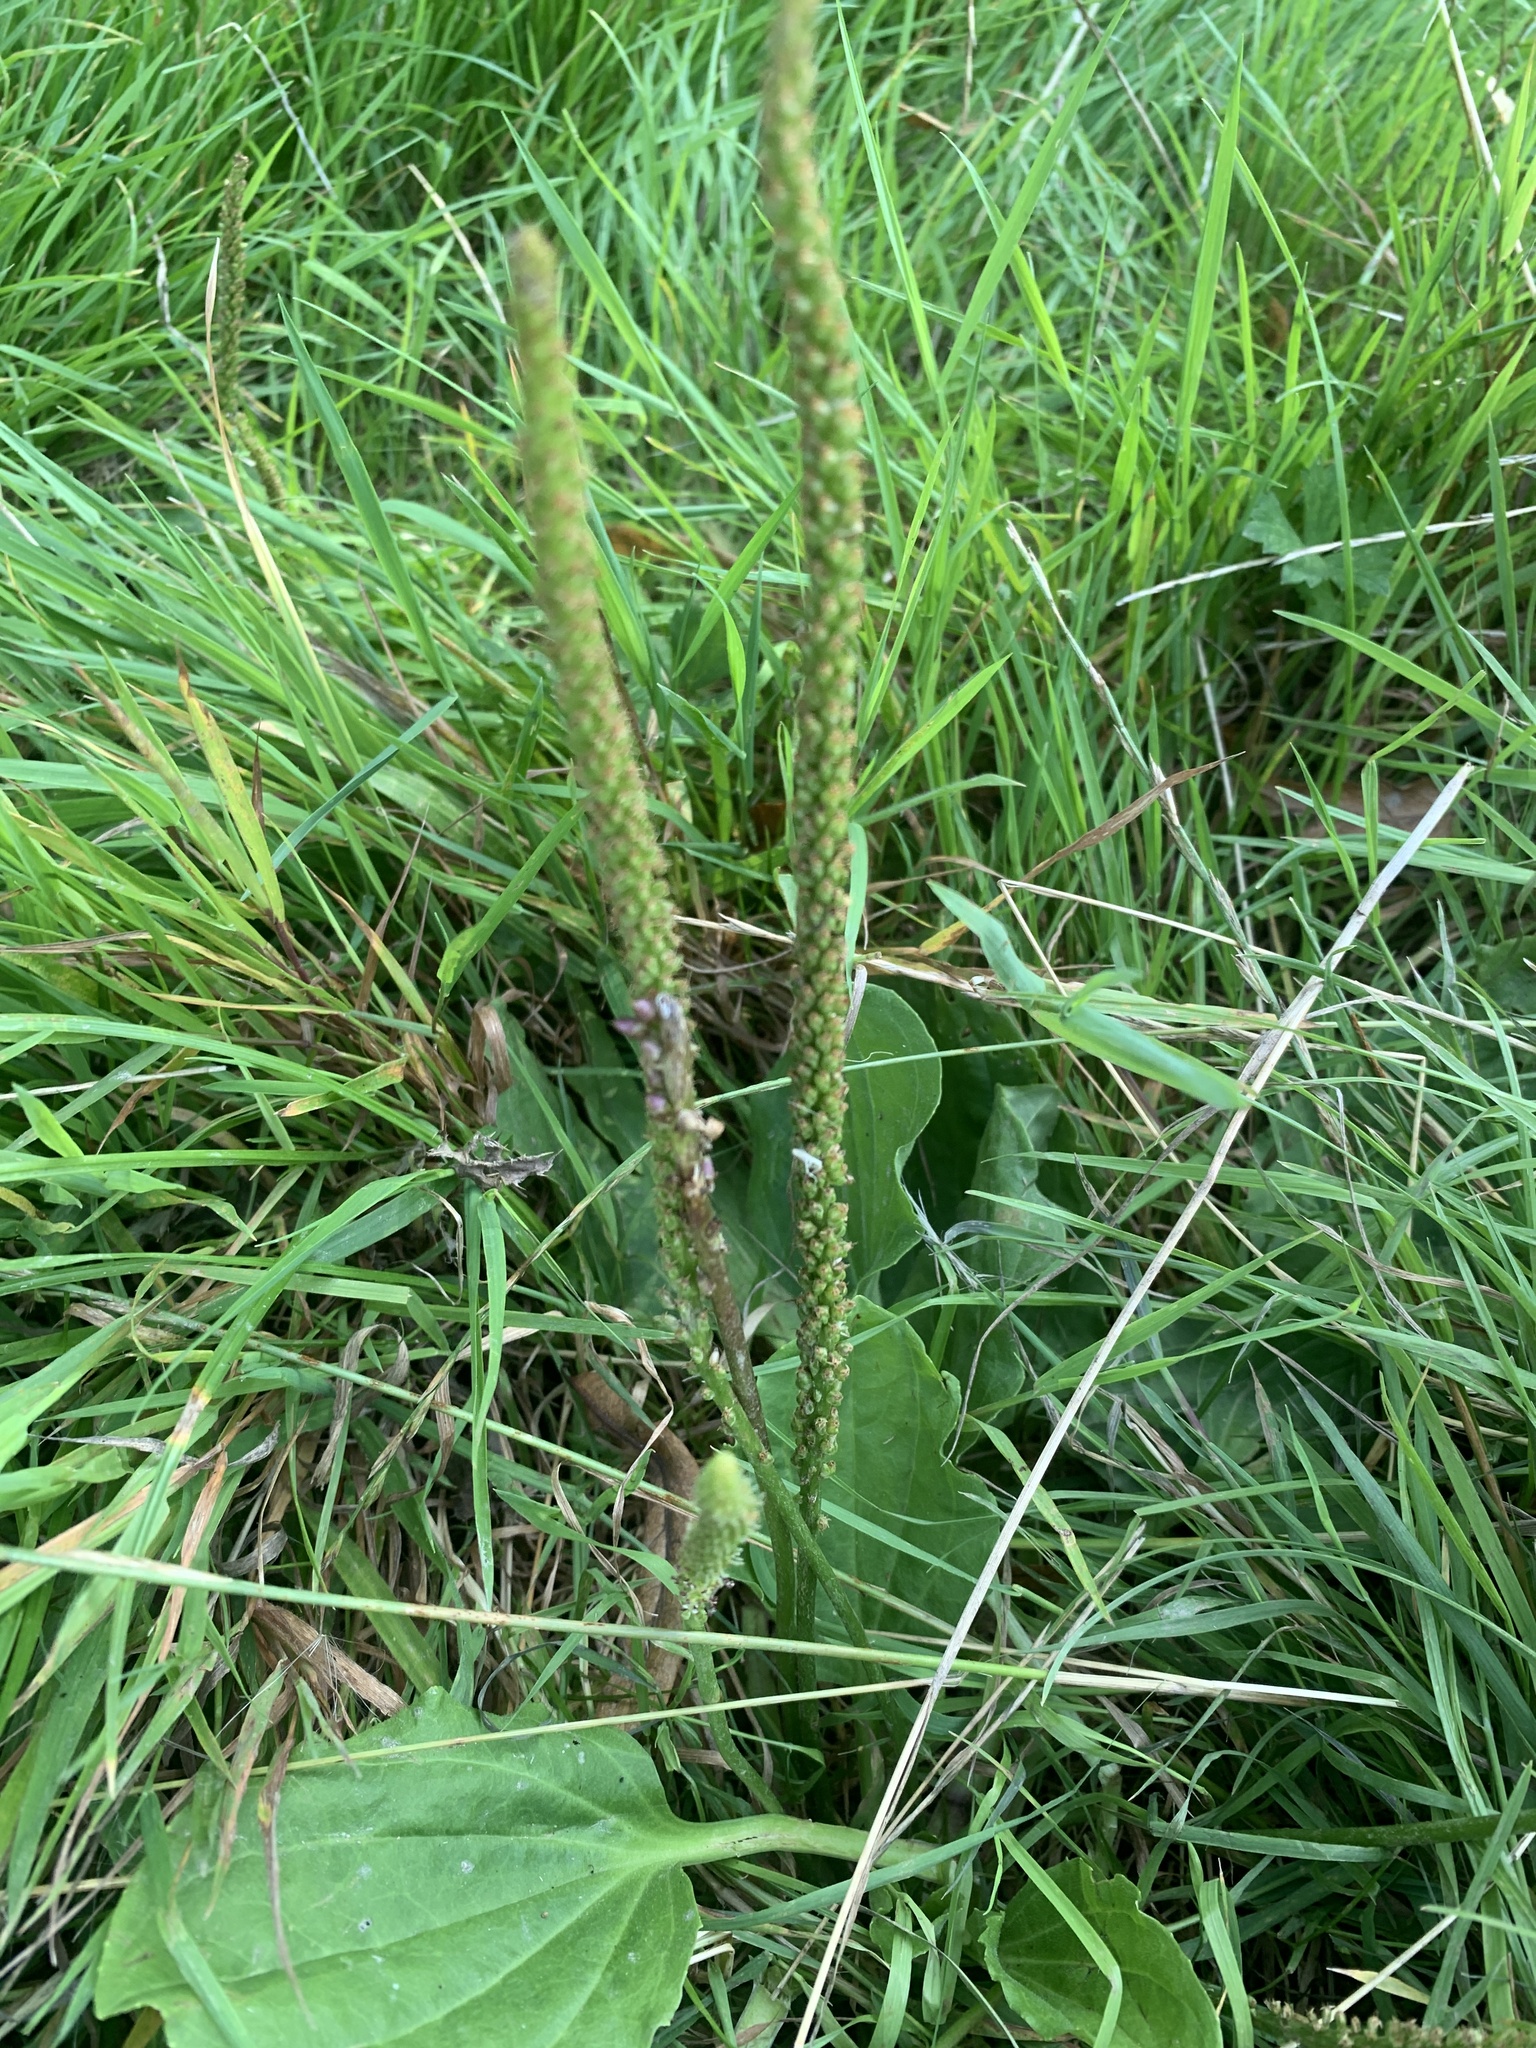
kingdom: Plantae
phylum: Tracheophyta
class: Magnoliopsida
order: Lamiales
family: Plantaginaceae
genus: Plantago
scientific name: Plantago major
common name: Common plantain
